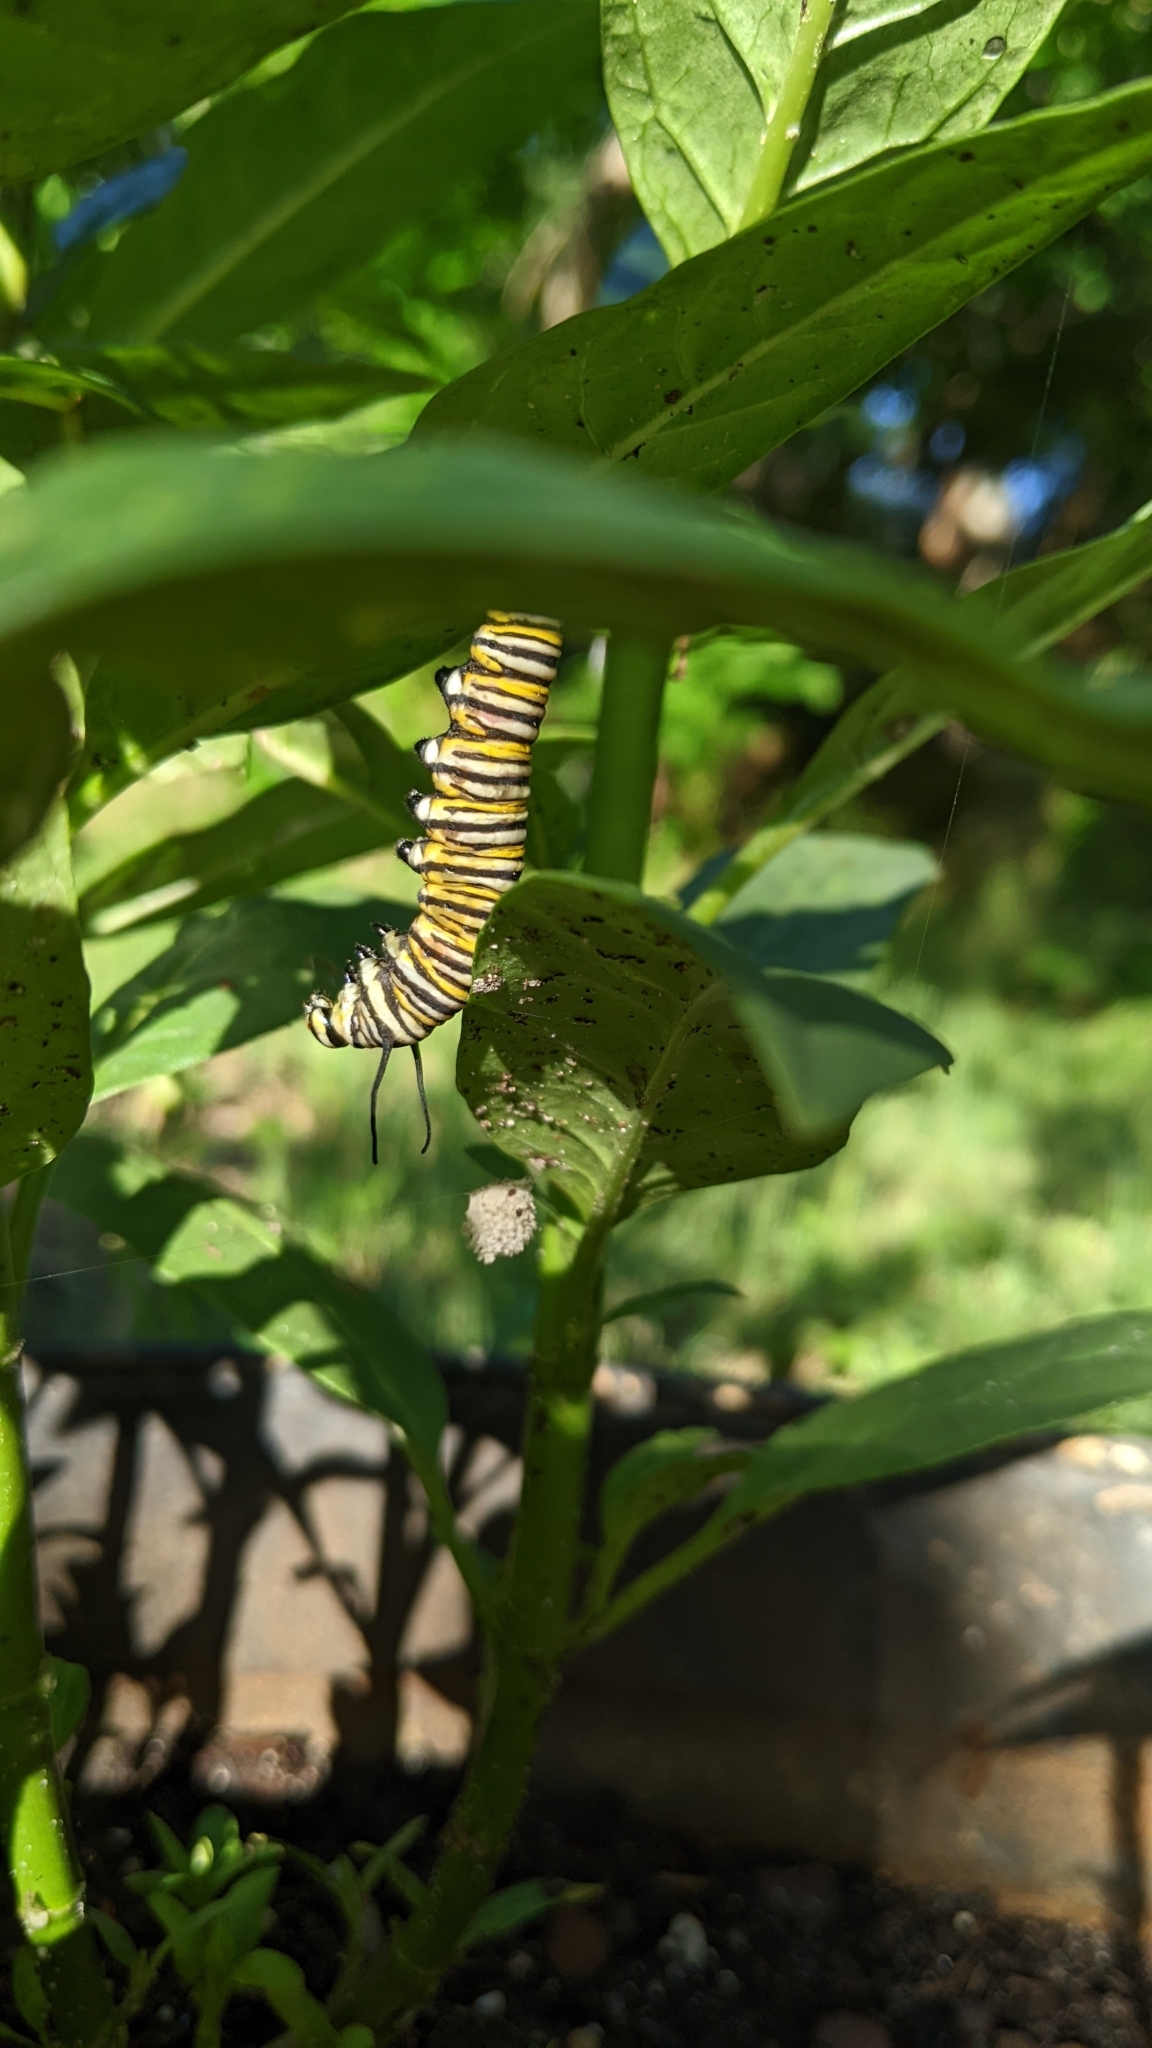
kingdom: Animalia
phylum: Arthropoda
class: Insecta
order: Lepidoptera
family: Nymphalidae
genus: Danaus
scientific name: Danaus plexippus
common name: Monarch
